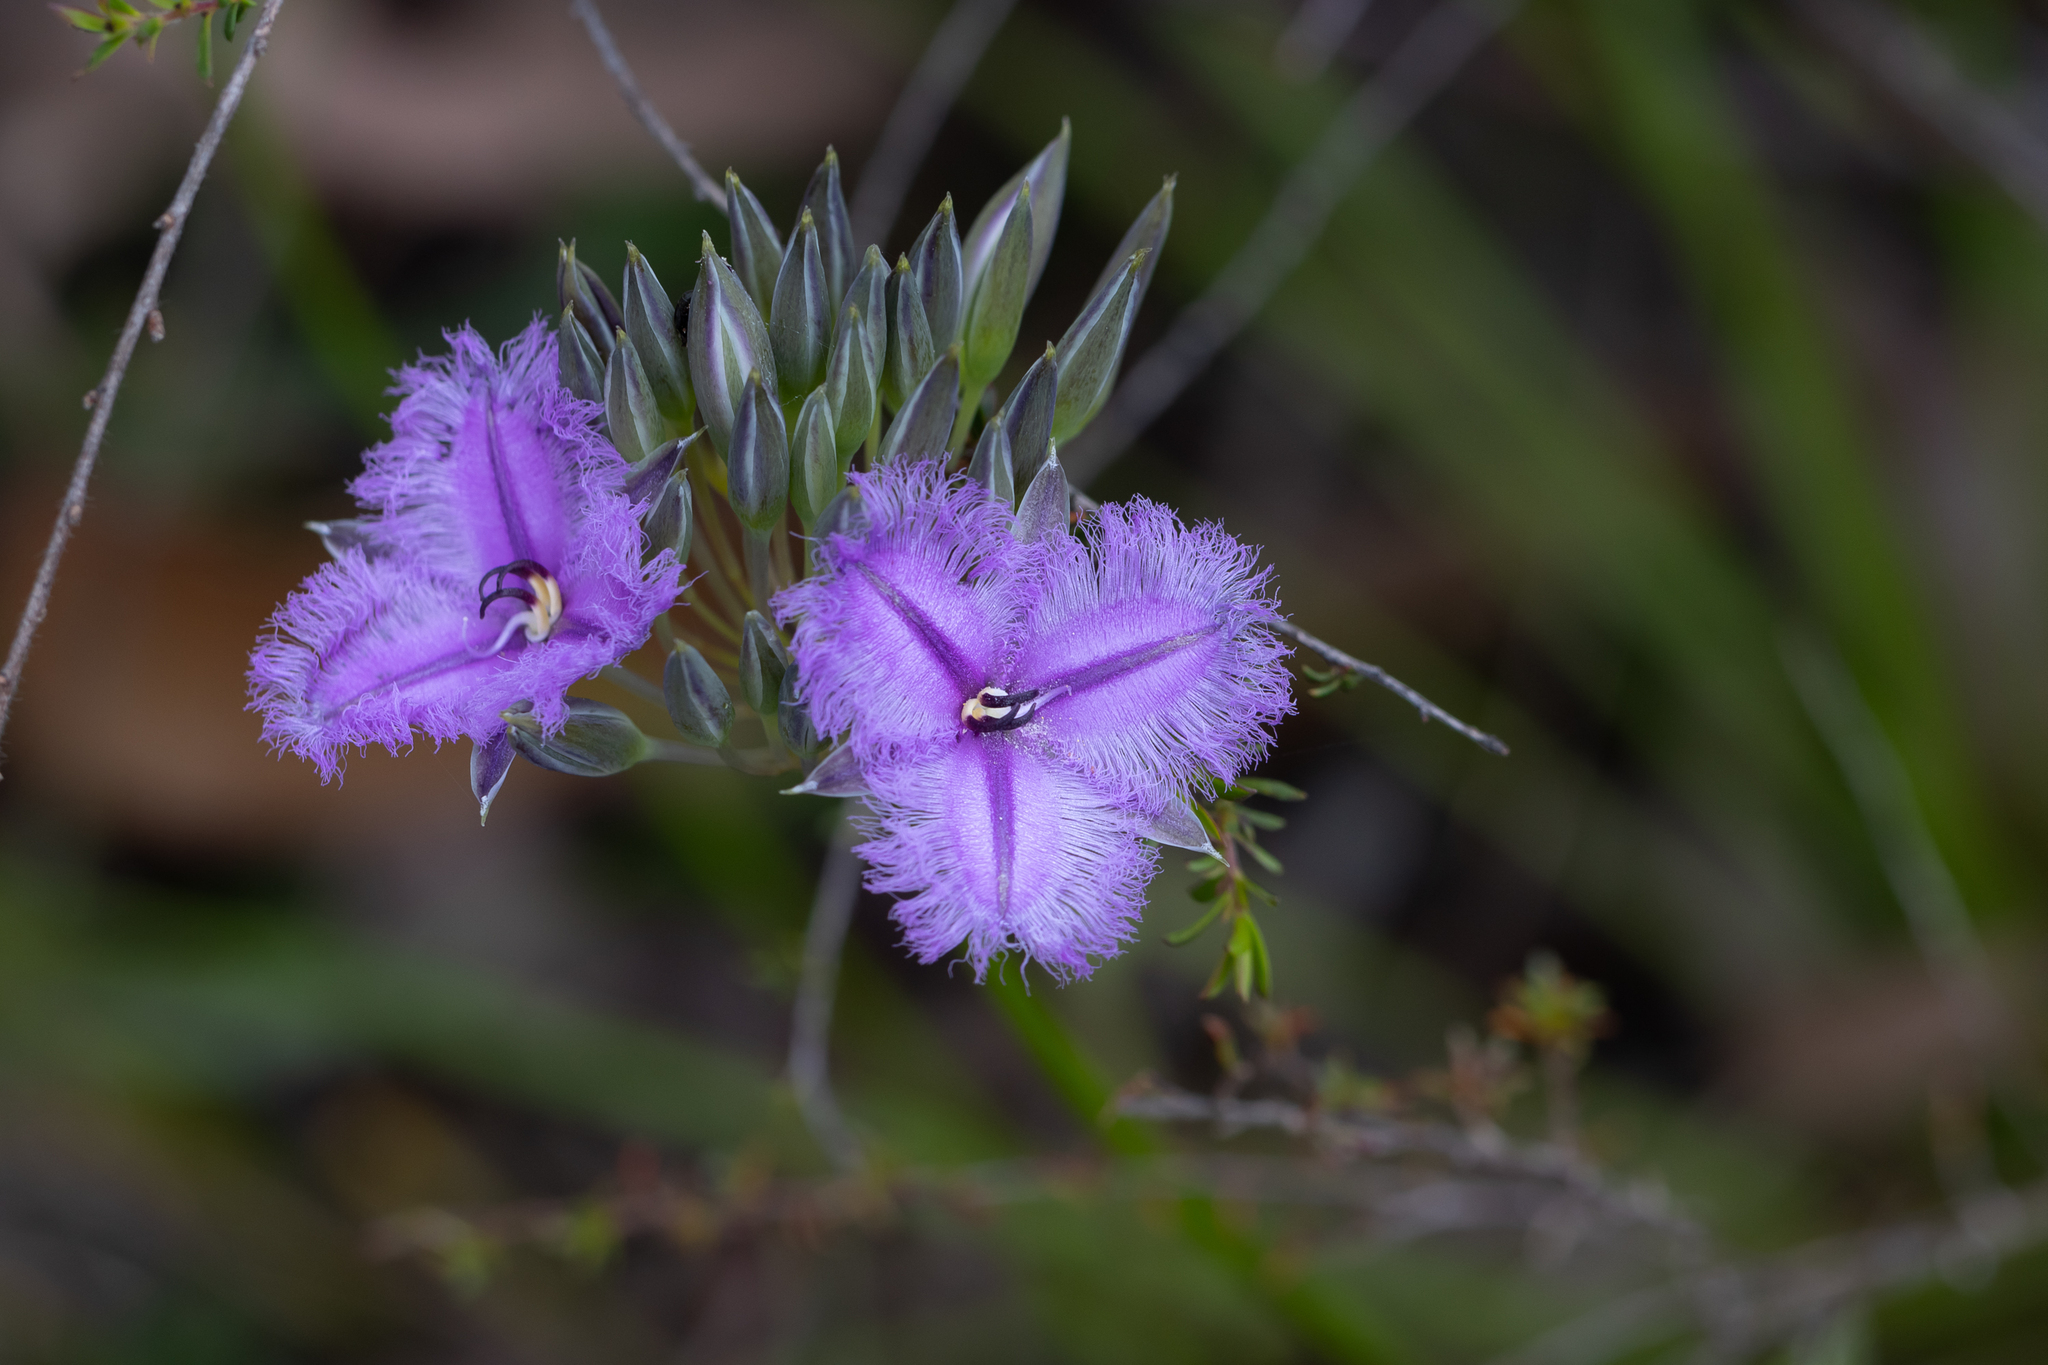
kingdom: Plantae
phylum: Tracheophyta
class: Liliopsida
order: Asparagales
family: Asparagaceae
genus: Thysanotus
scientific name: Thysanotus multiflorus
